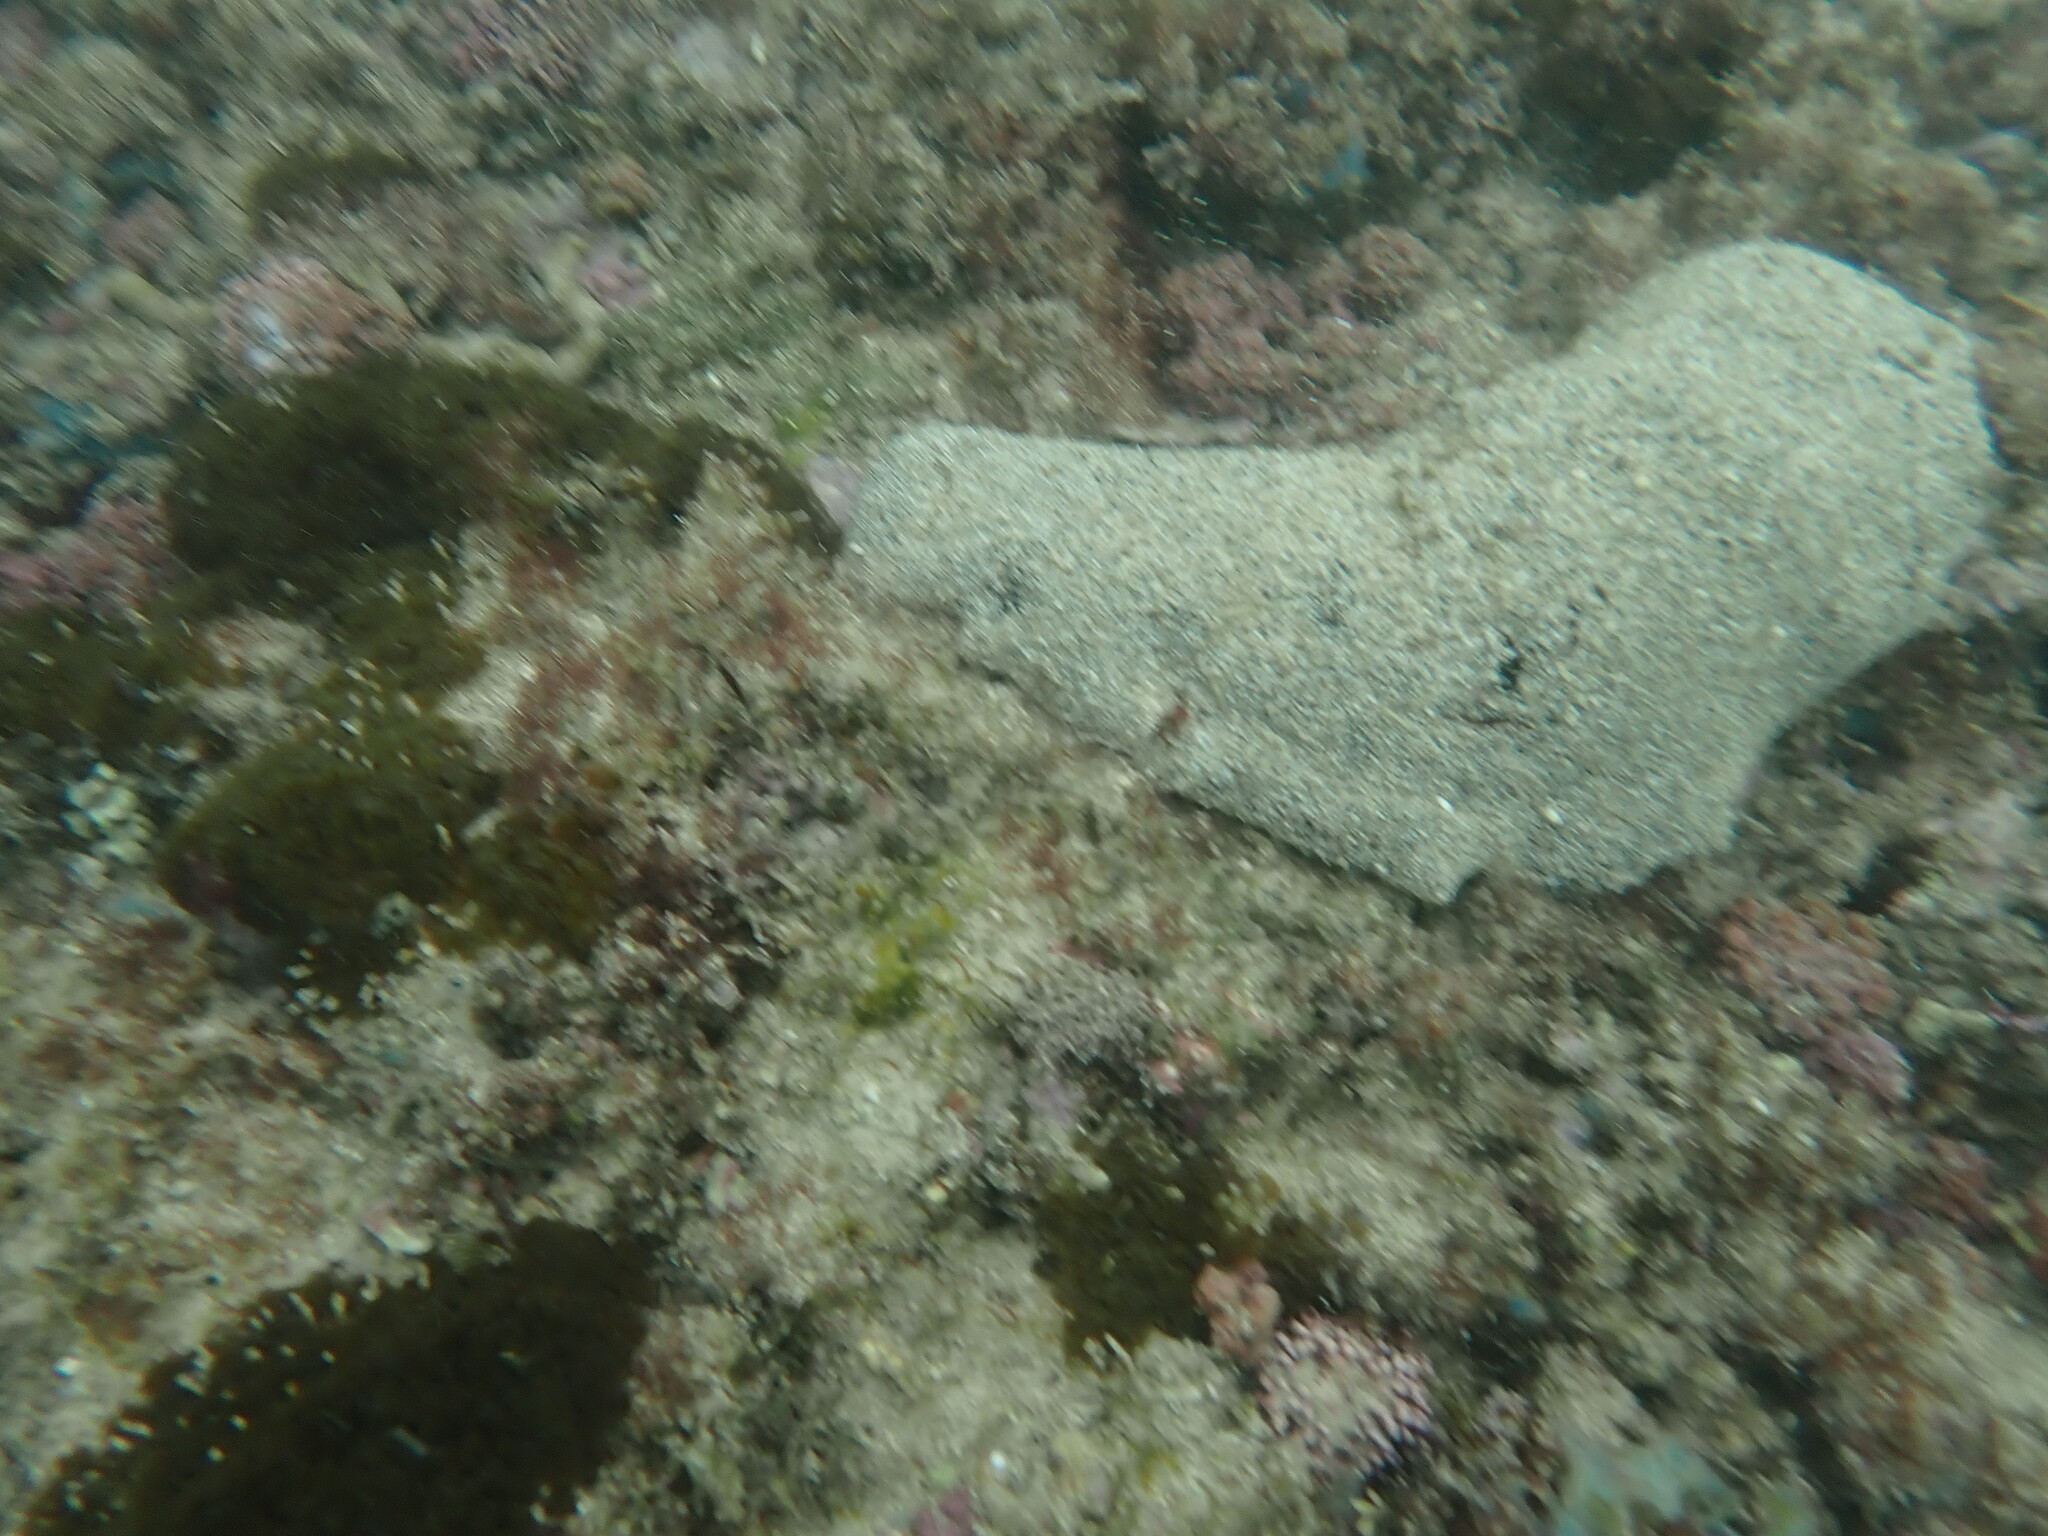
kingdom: Animalia
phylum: Echinodermata
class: Holothuroidea
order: Holothuriida
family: Holothuriidae
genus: Holothuria
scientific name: Holothuria whitmaei
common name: Black teatfish
